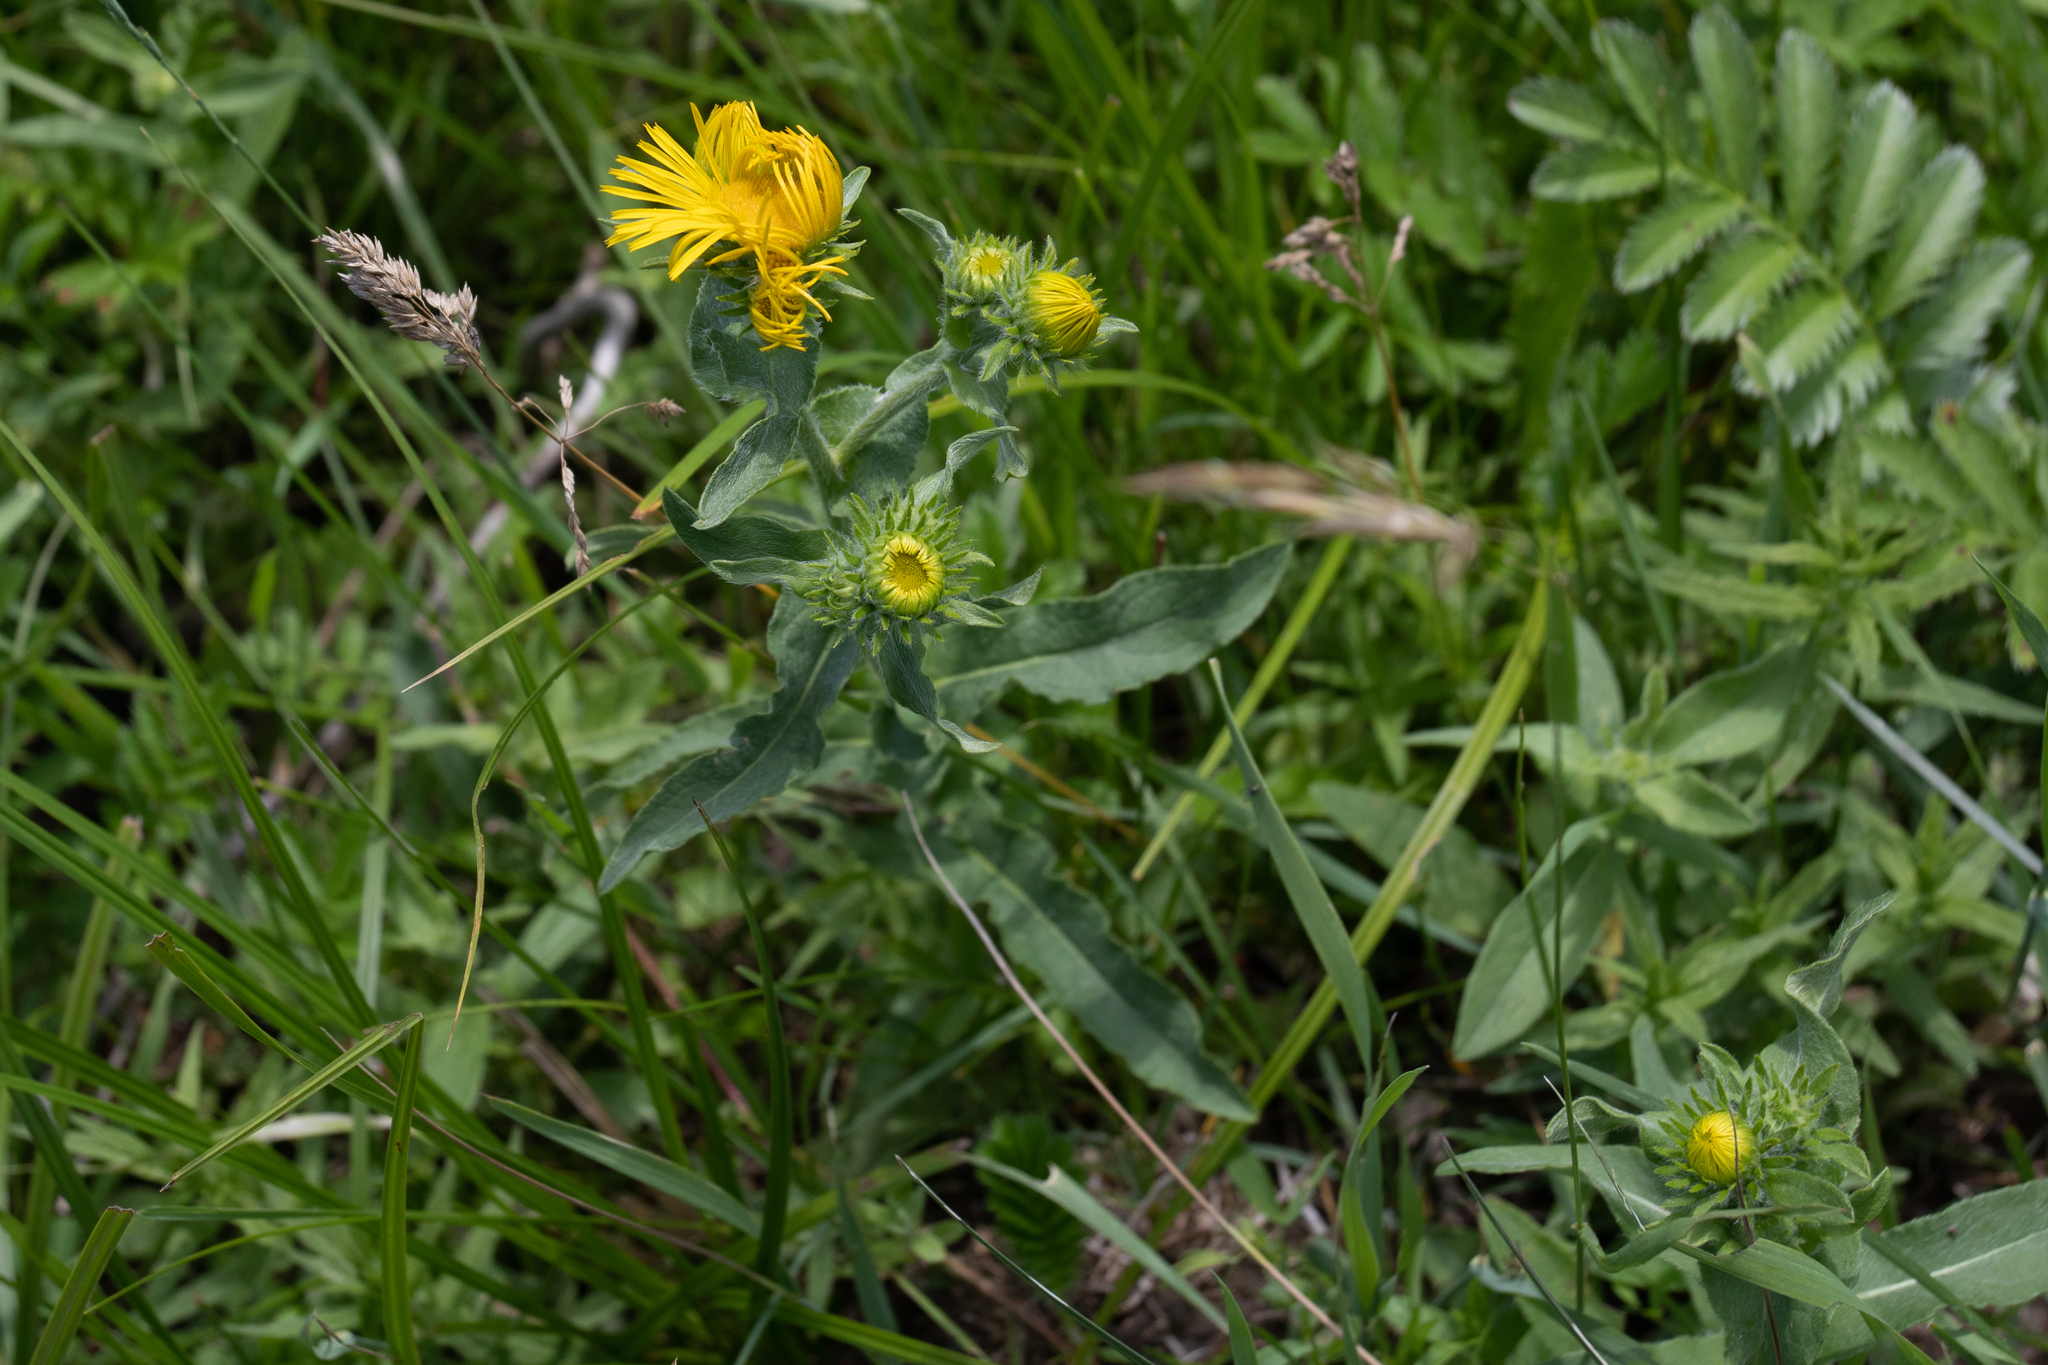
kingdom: Plantae
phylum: Tracheophyta
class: Magnoliopsida
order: Asterales
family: Asteraceae
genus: Pentanema
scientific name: Pentanema britannicum
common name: British elecampane
